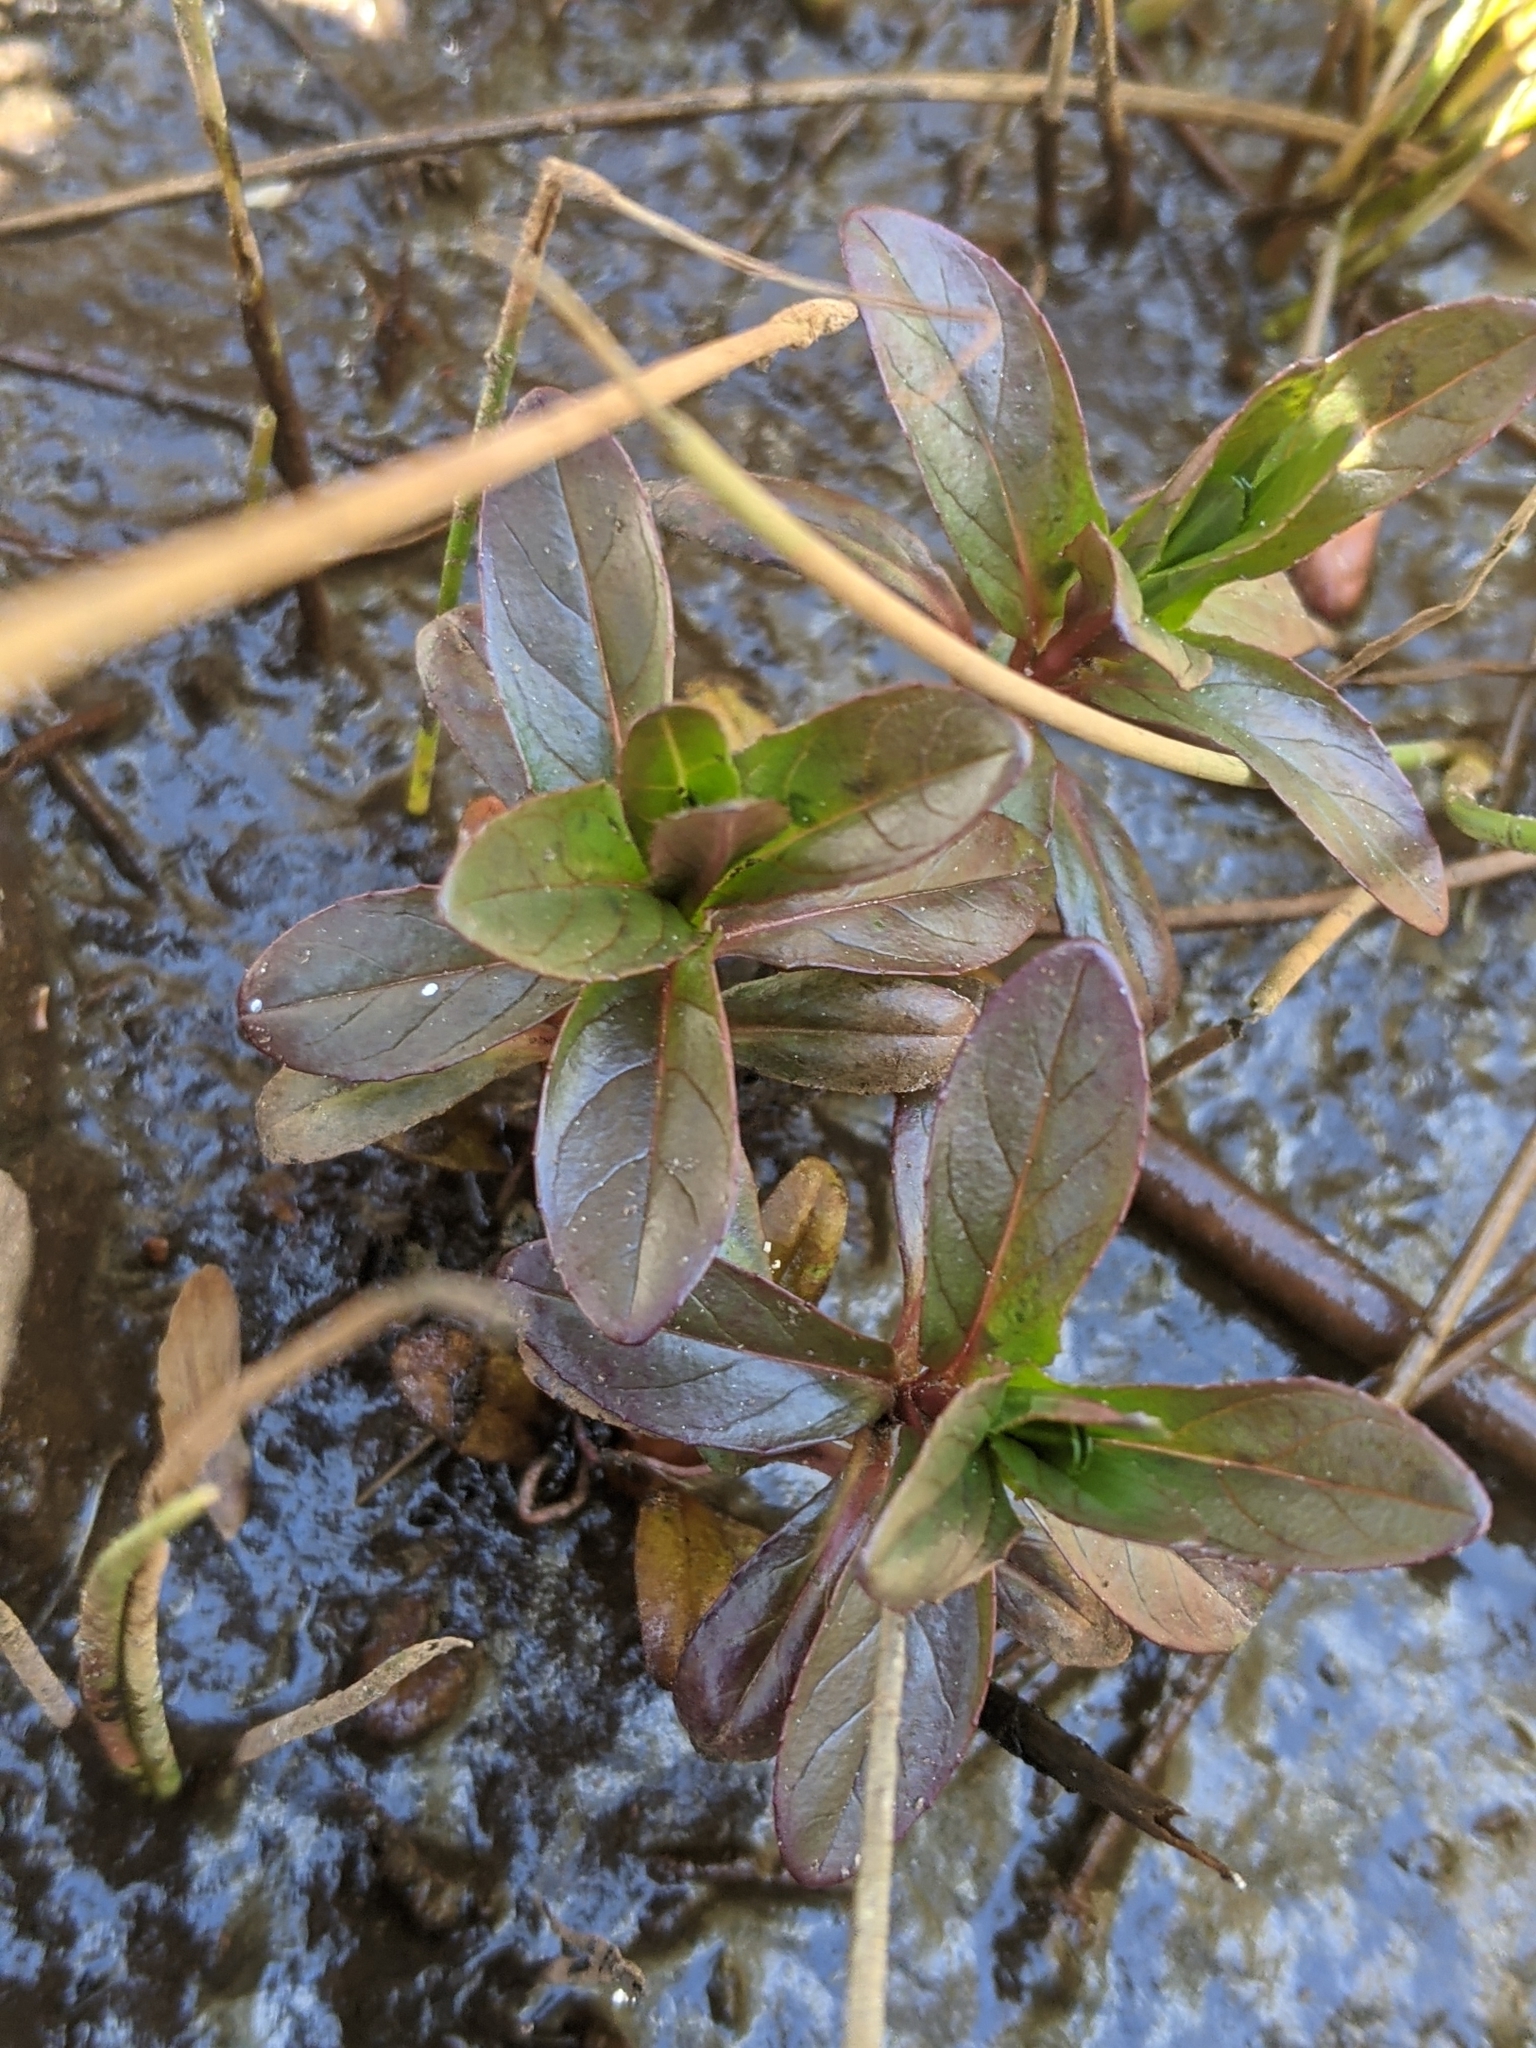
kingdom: Plantae
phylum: Tracheophyta
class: Magnoliopsida
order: Myrtales
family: Onagraceae
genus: Epilobium
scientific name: Epilobium ciliatum
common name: American willowherb
